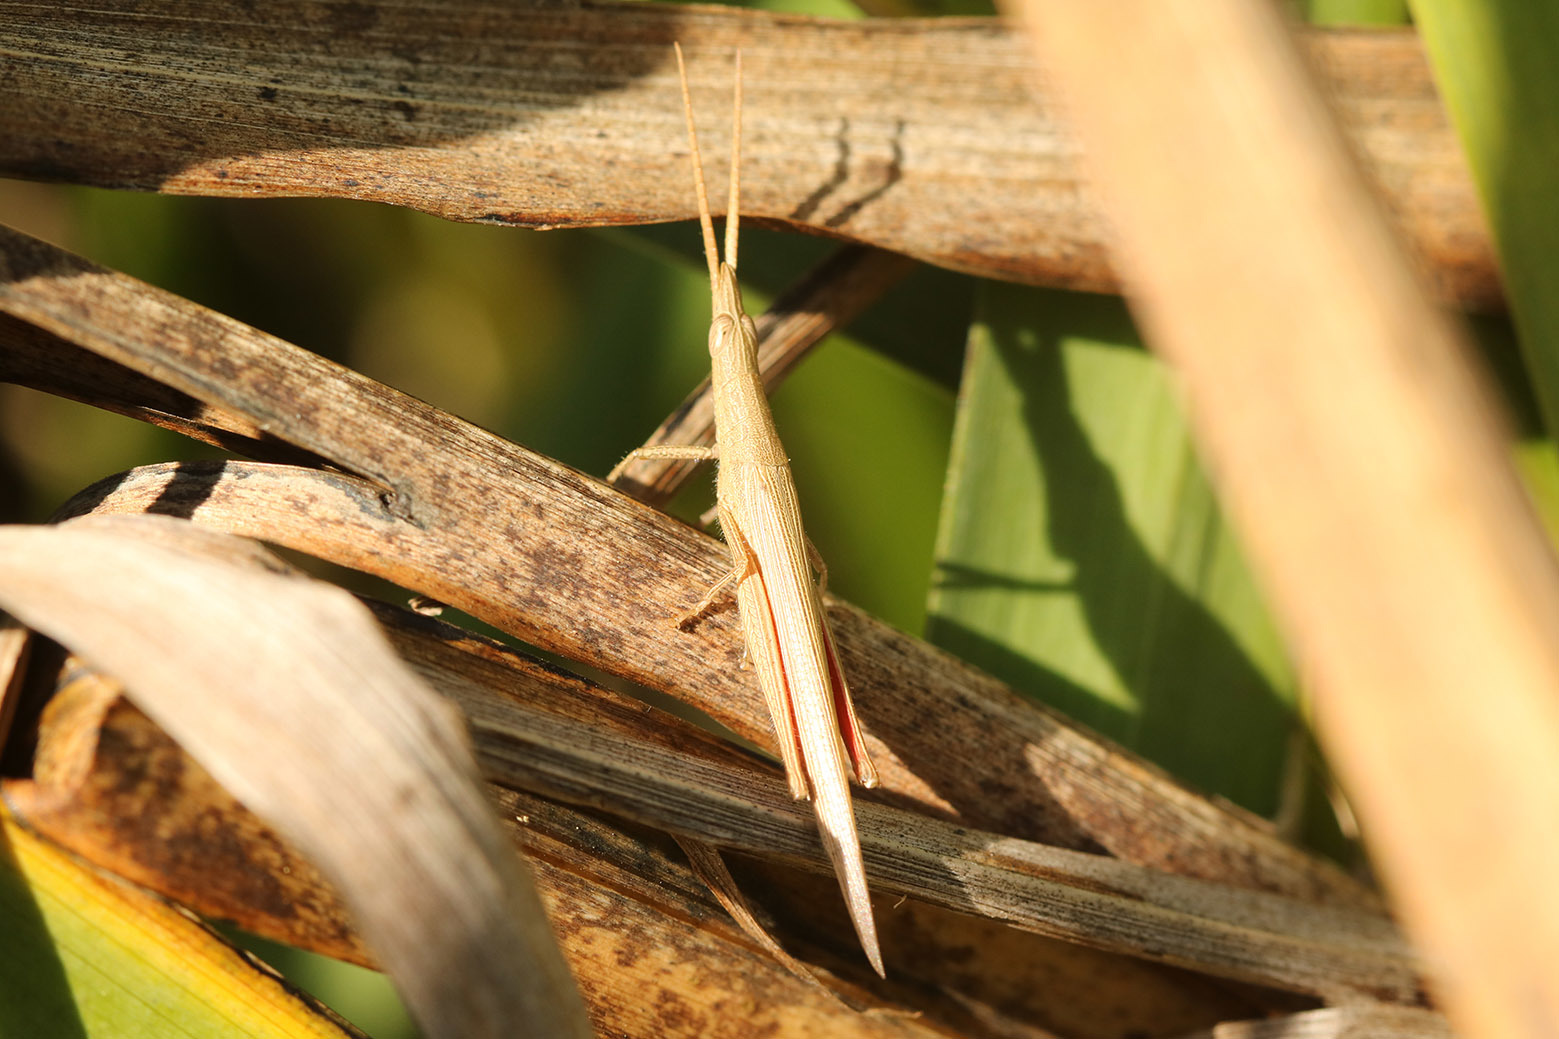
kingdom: Animalia
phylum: Arthropoda
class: Insecta
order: Orthoptera
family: Acrididae
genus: Haroldgrantia
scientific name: Haroldgrantia lignosa
